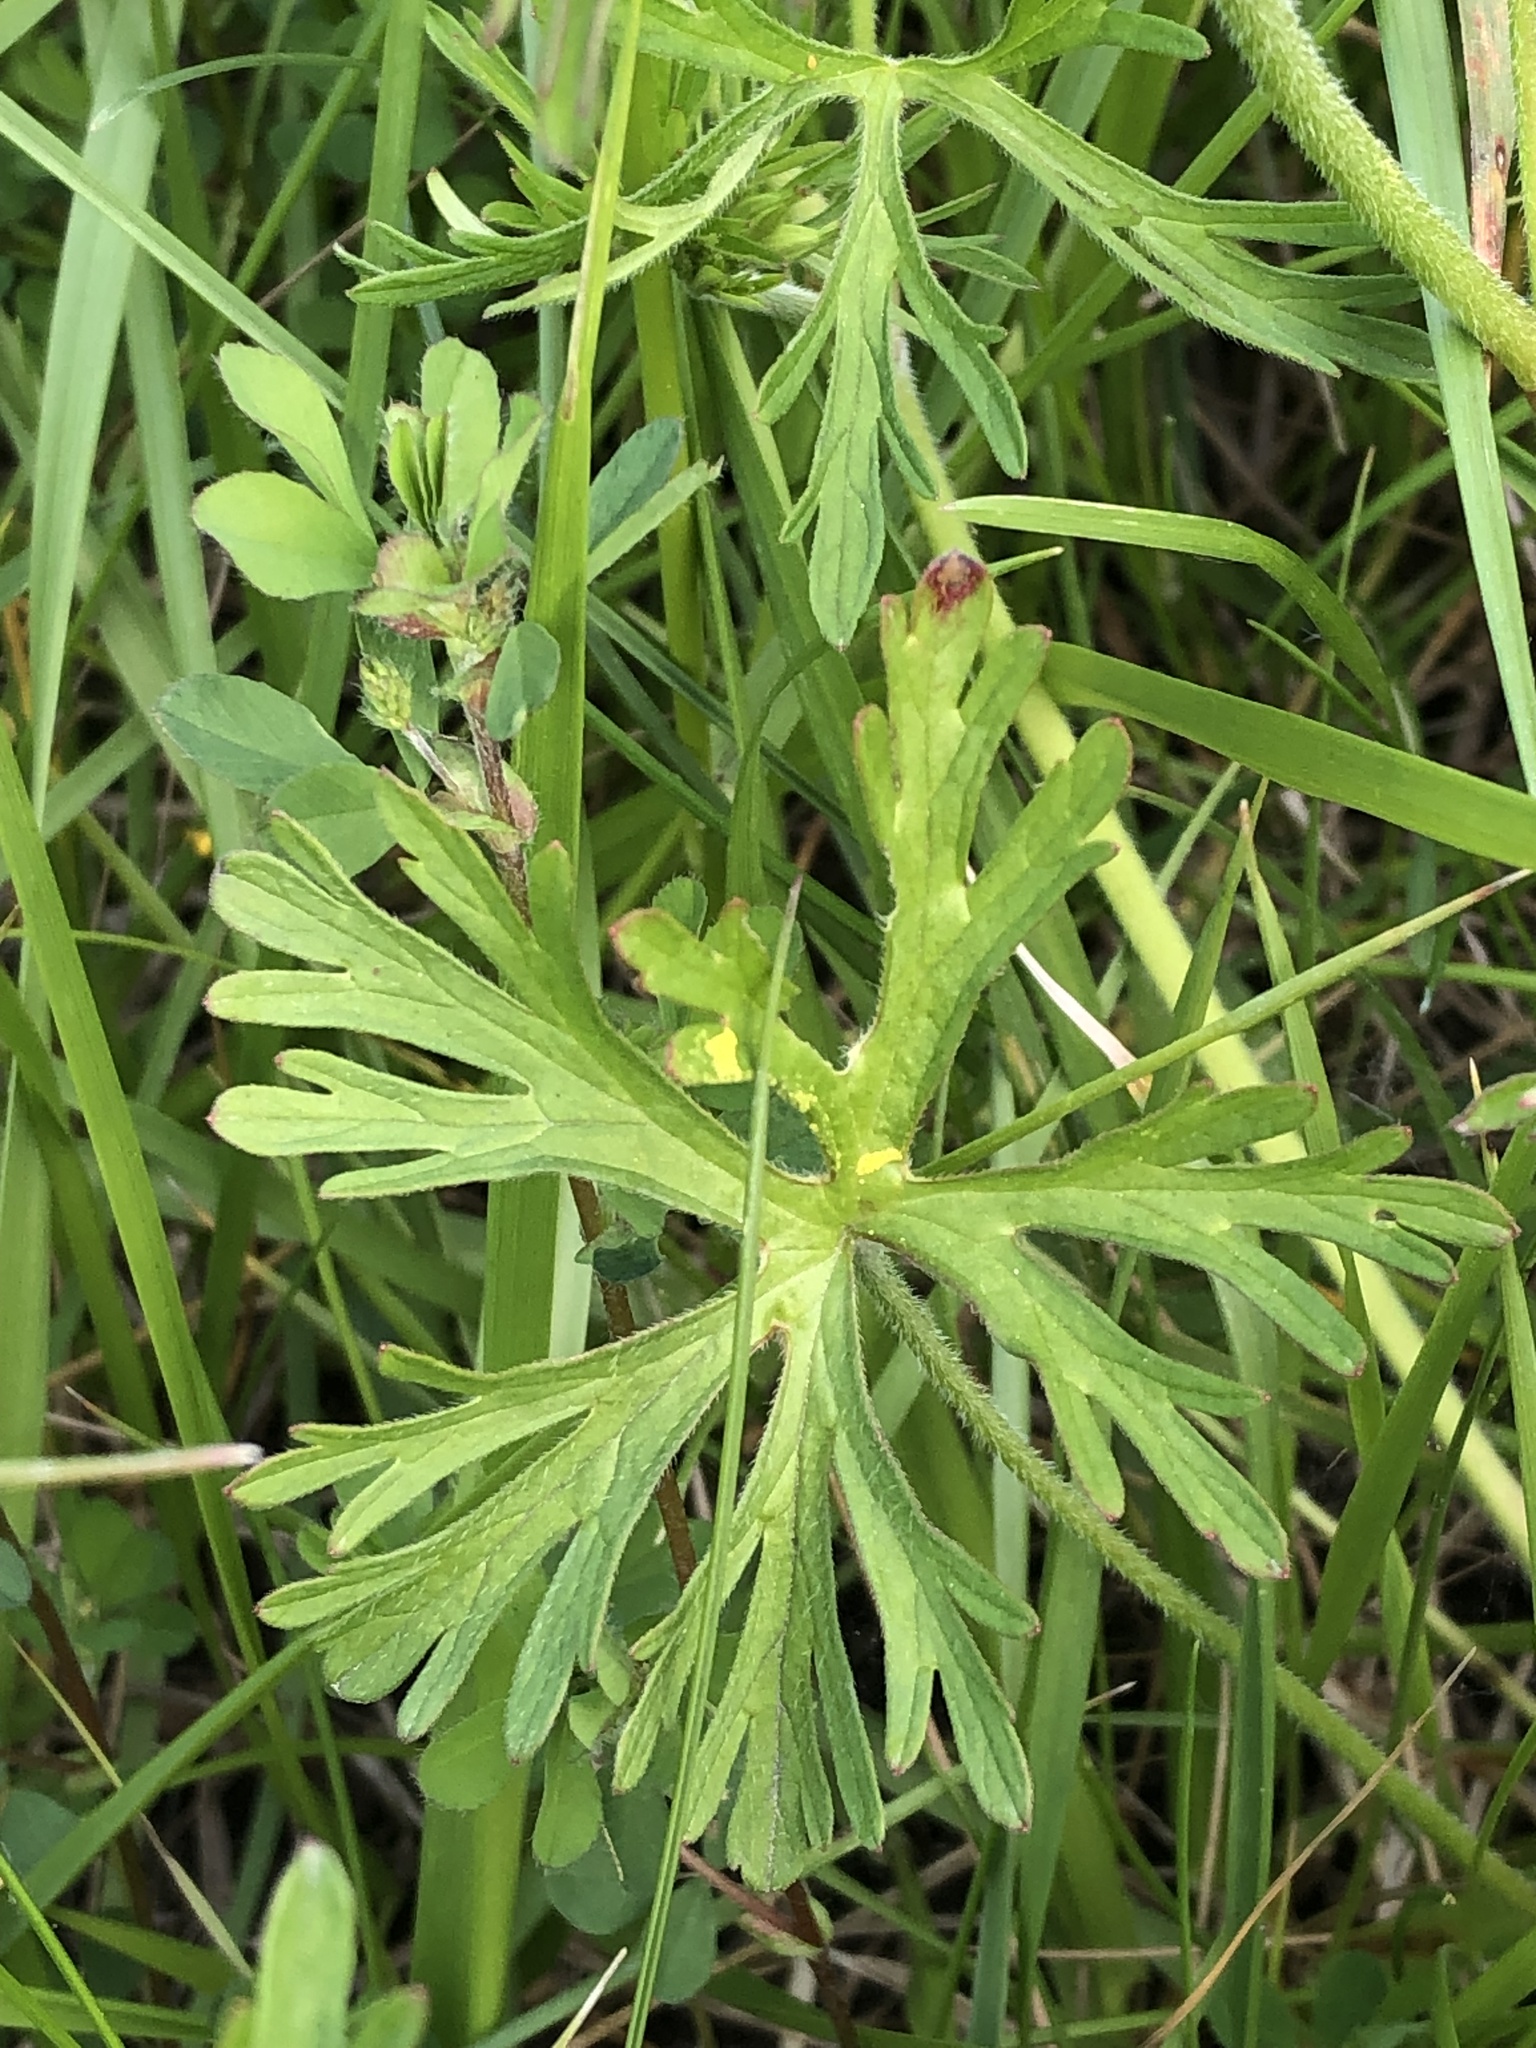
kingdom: Plantae
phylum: Tracheophyta
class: Magnoliopsida
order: Geraniales
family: Geraniaceae
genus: Geranium
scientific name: Geranium dissectum
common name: Cut-leaved crane's-bill
